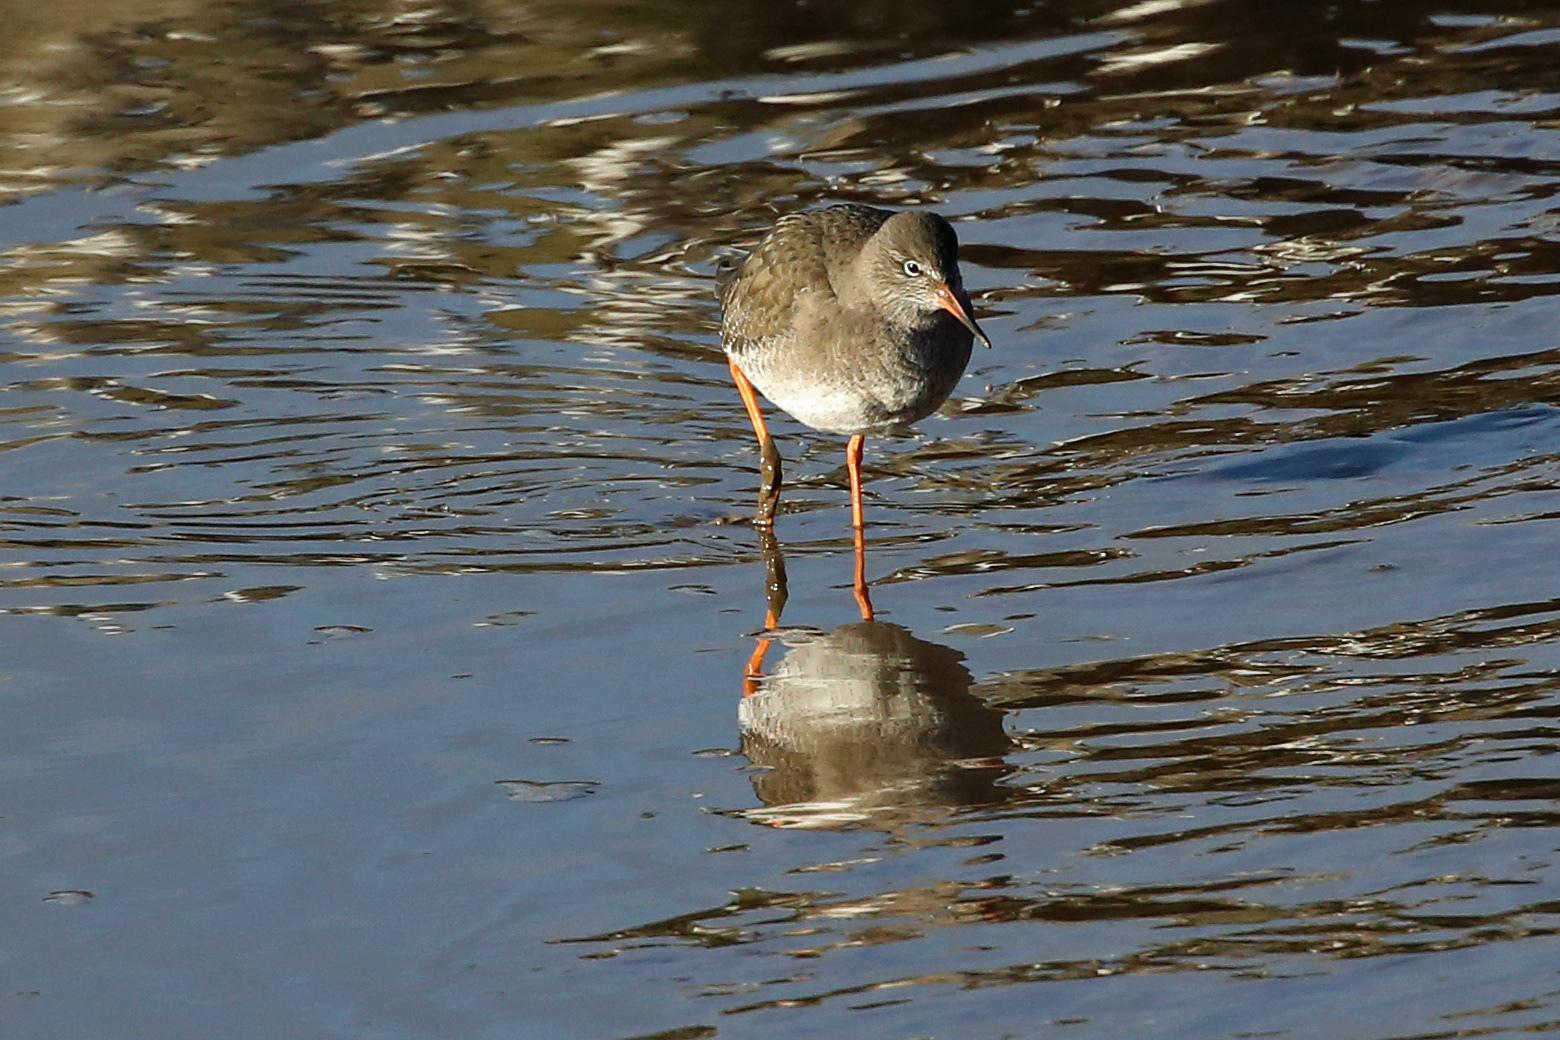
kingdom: Animalia
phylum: Chordata
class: Aves
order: Charadriiformes
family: Scolopacidae
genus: Tringa
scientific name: Tringa totanus
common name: Common redshank
